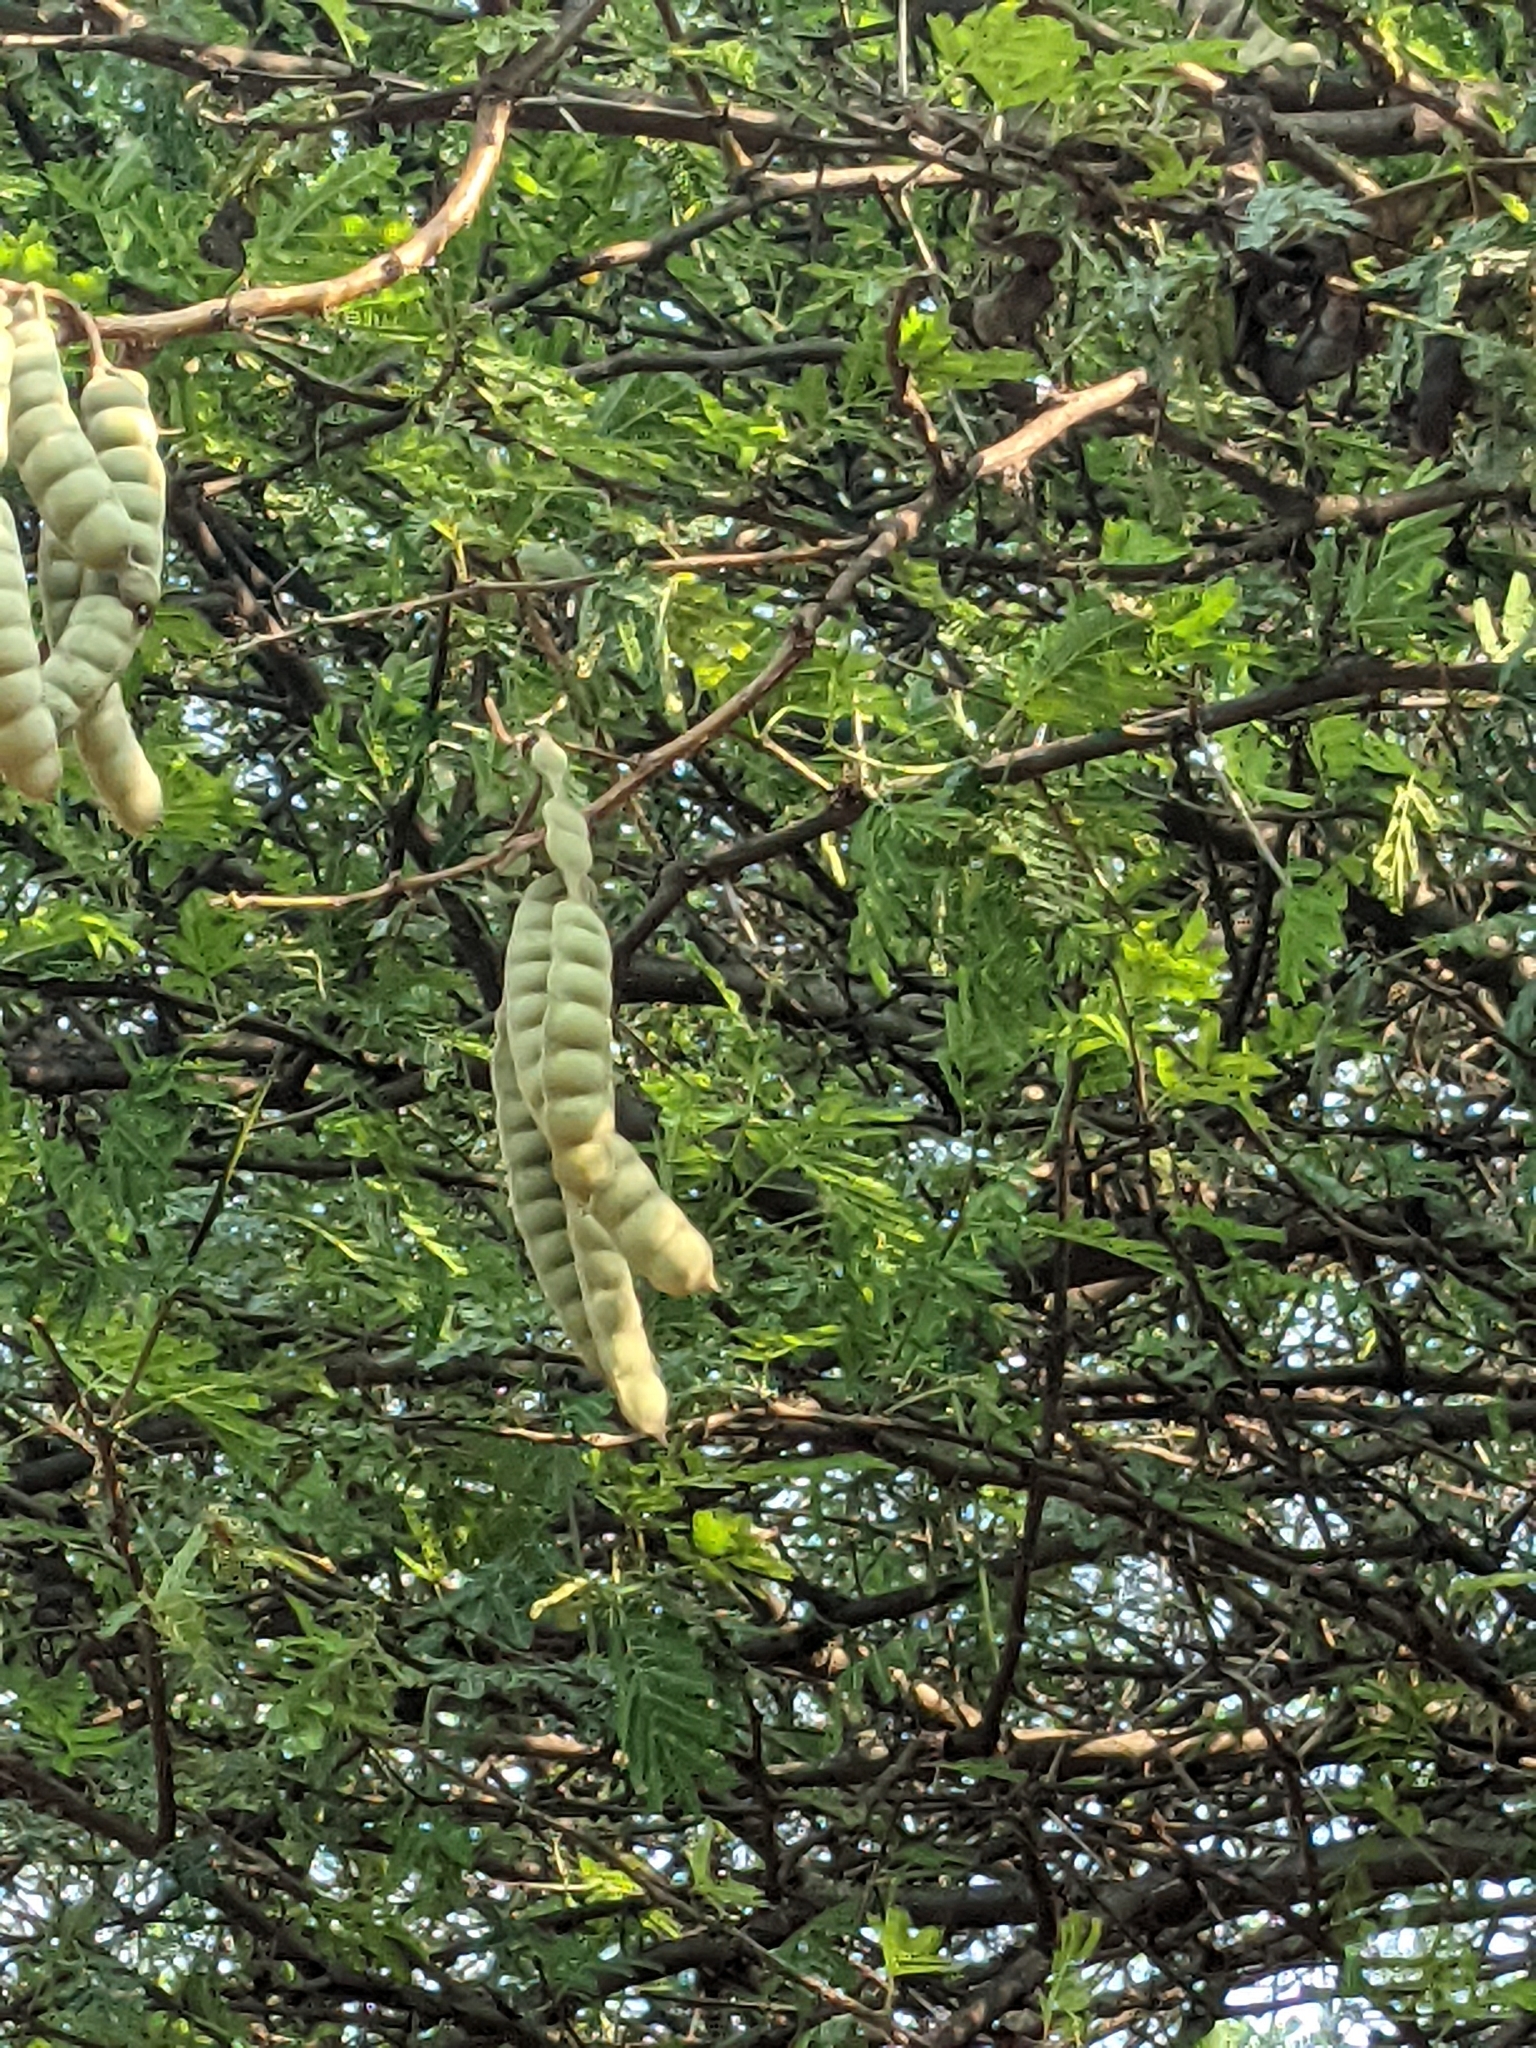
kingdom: Plantae
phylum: Tracheophyta
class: Magnoliopsida
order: Fabales
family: Fabaceae
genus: Vachellia
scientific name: Vachellia nilotica
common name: Arabic gumtree
